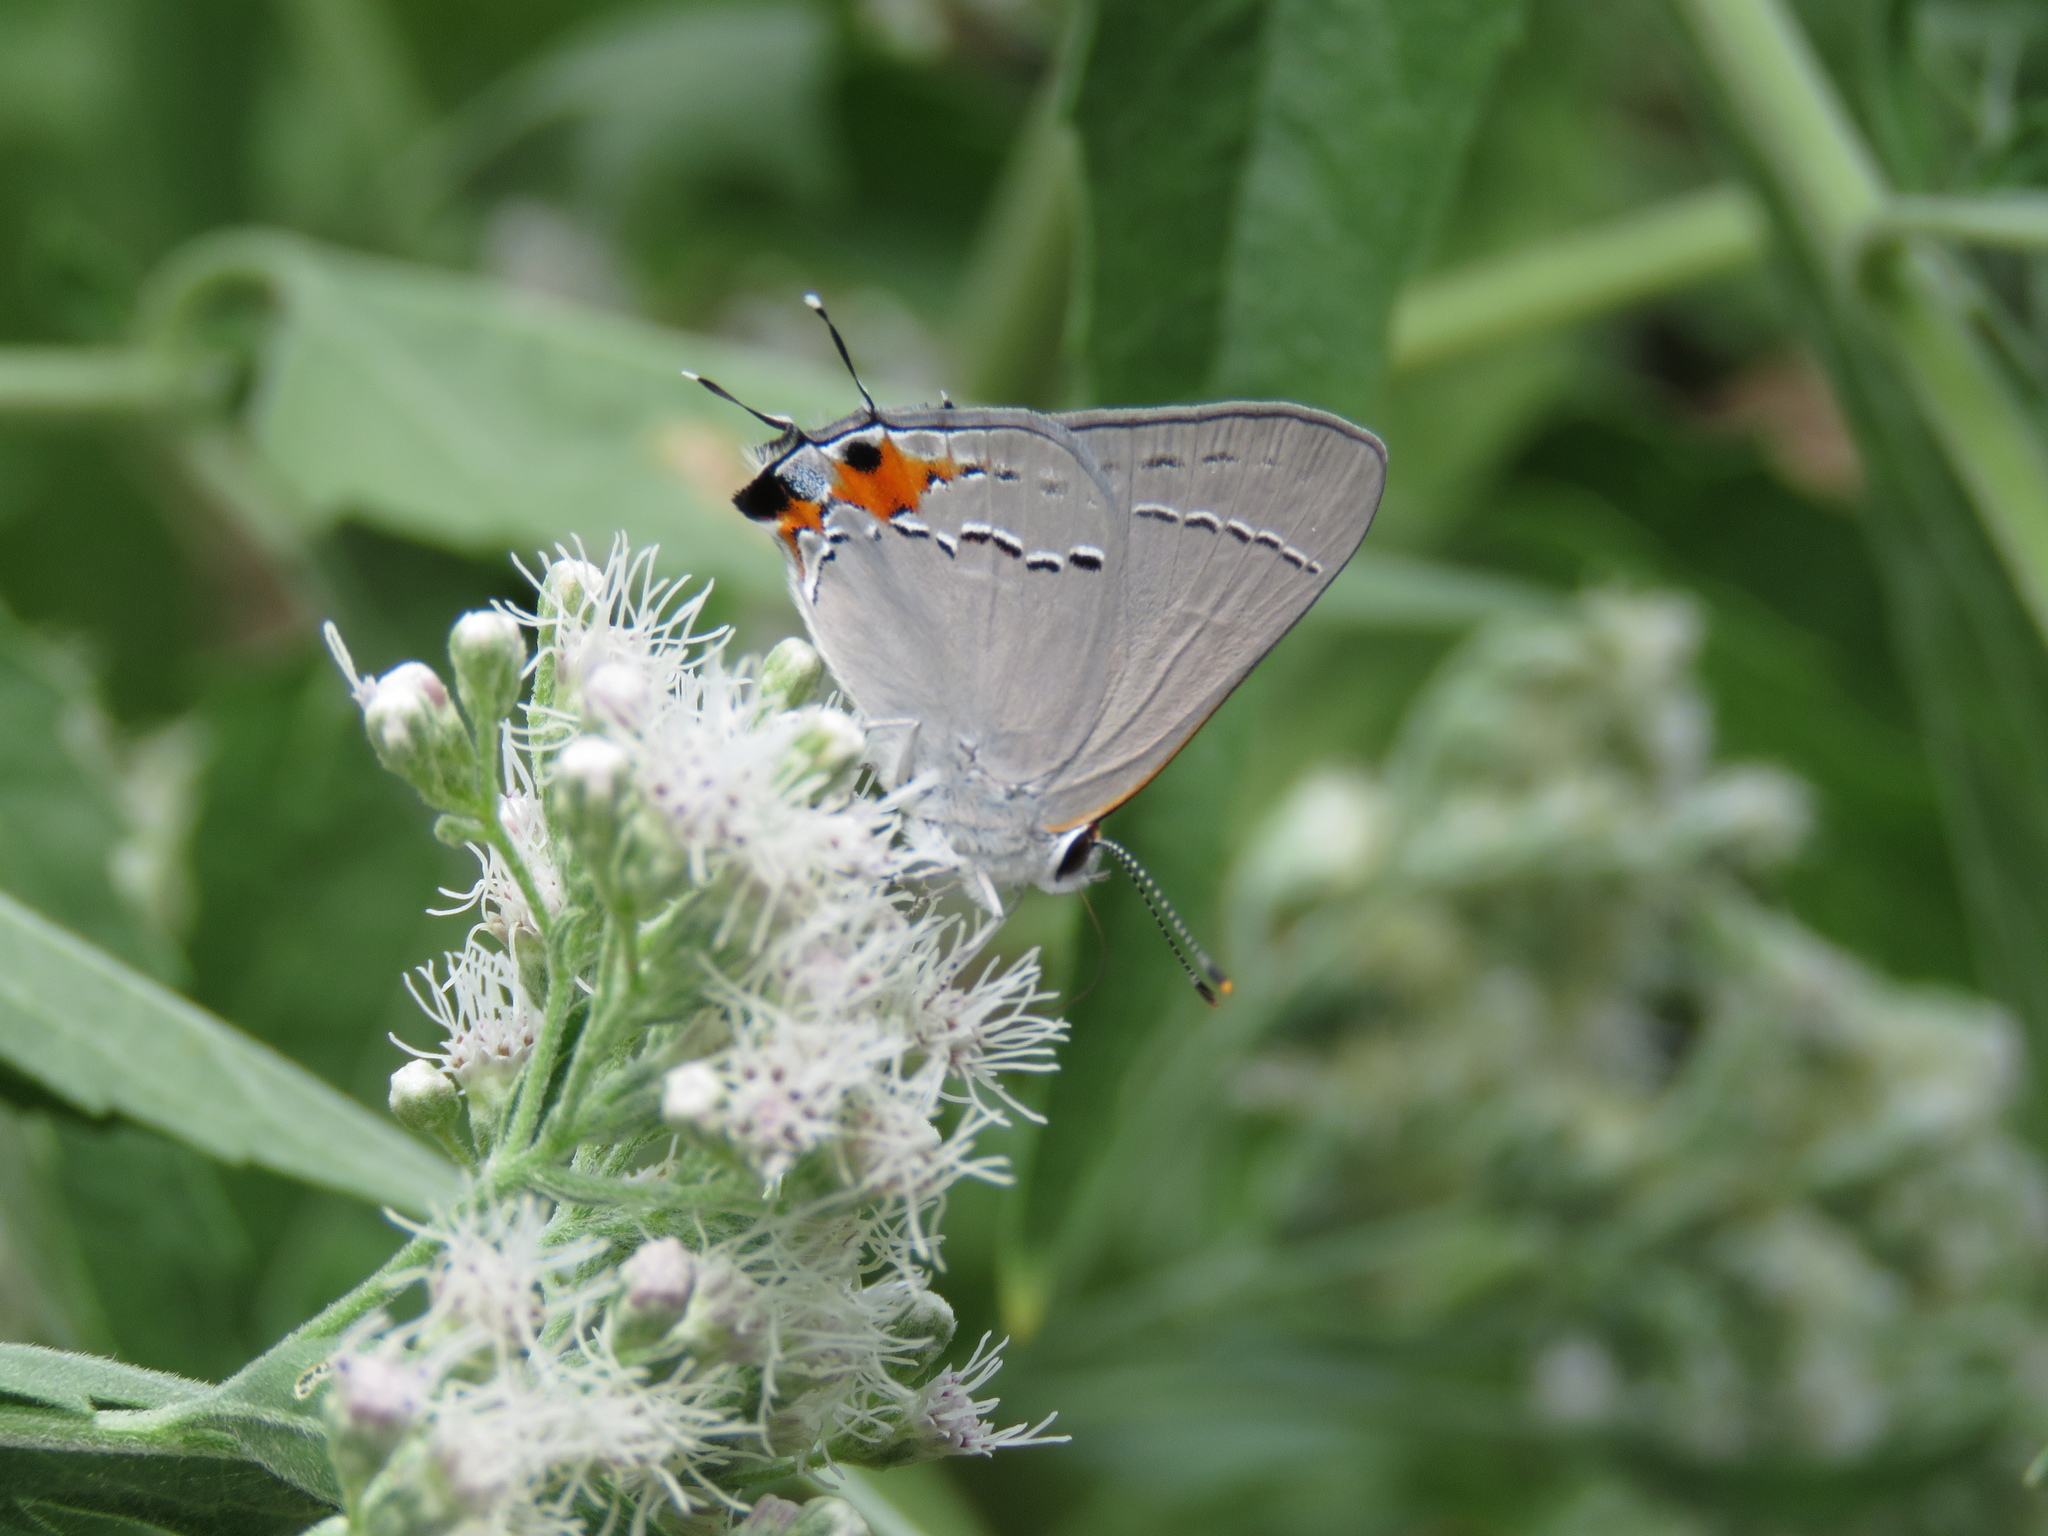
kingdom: Animalia
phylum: Arthropoda
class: Insecta
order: Lepidoptera
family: Lycaenidae
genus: Strymon
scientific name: Strymon melinus
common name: Gray hairstreak
